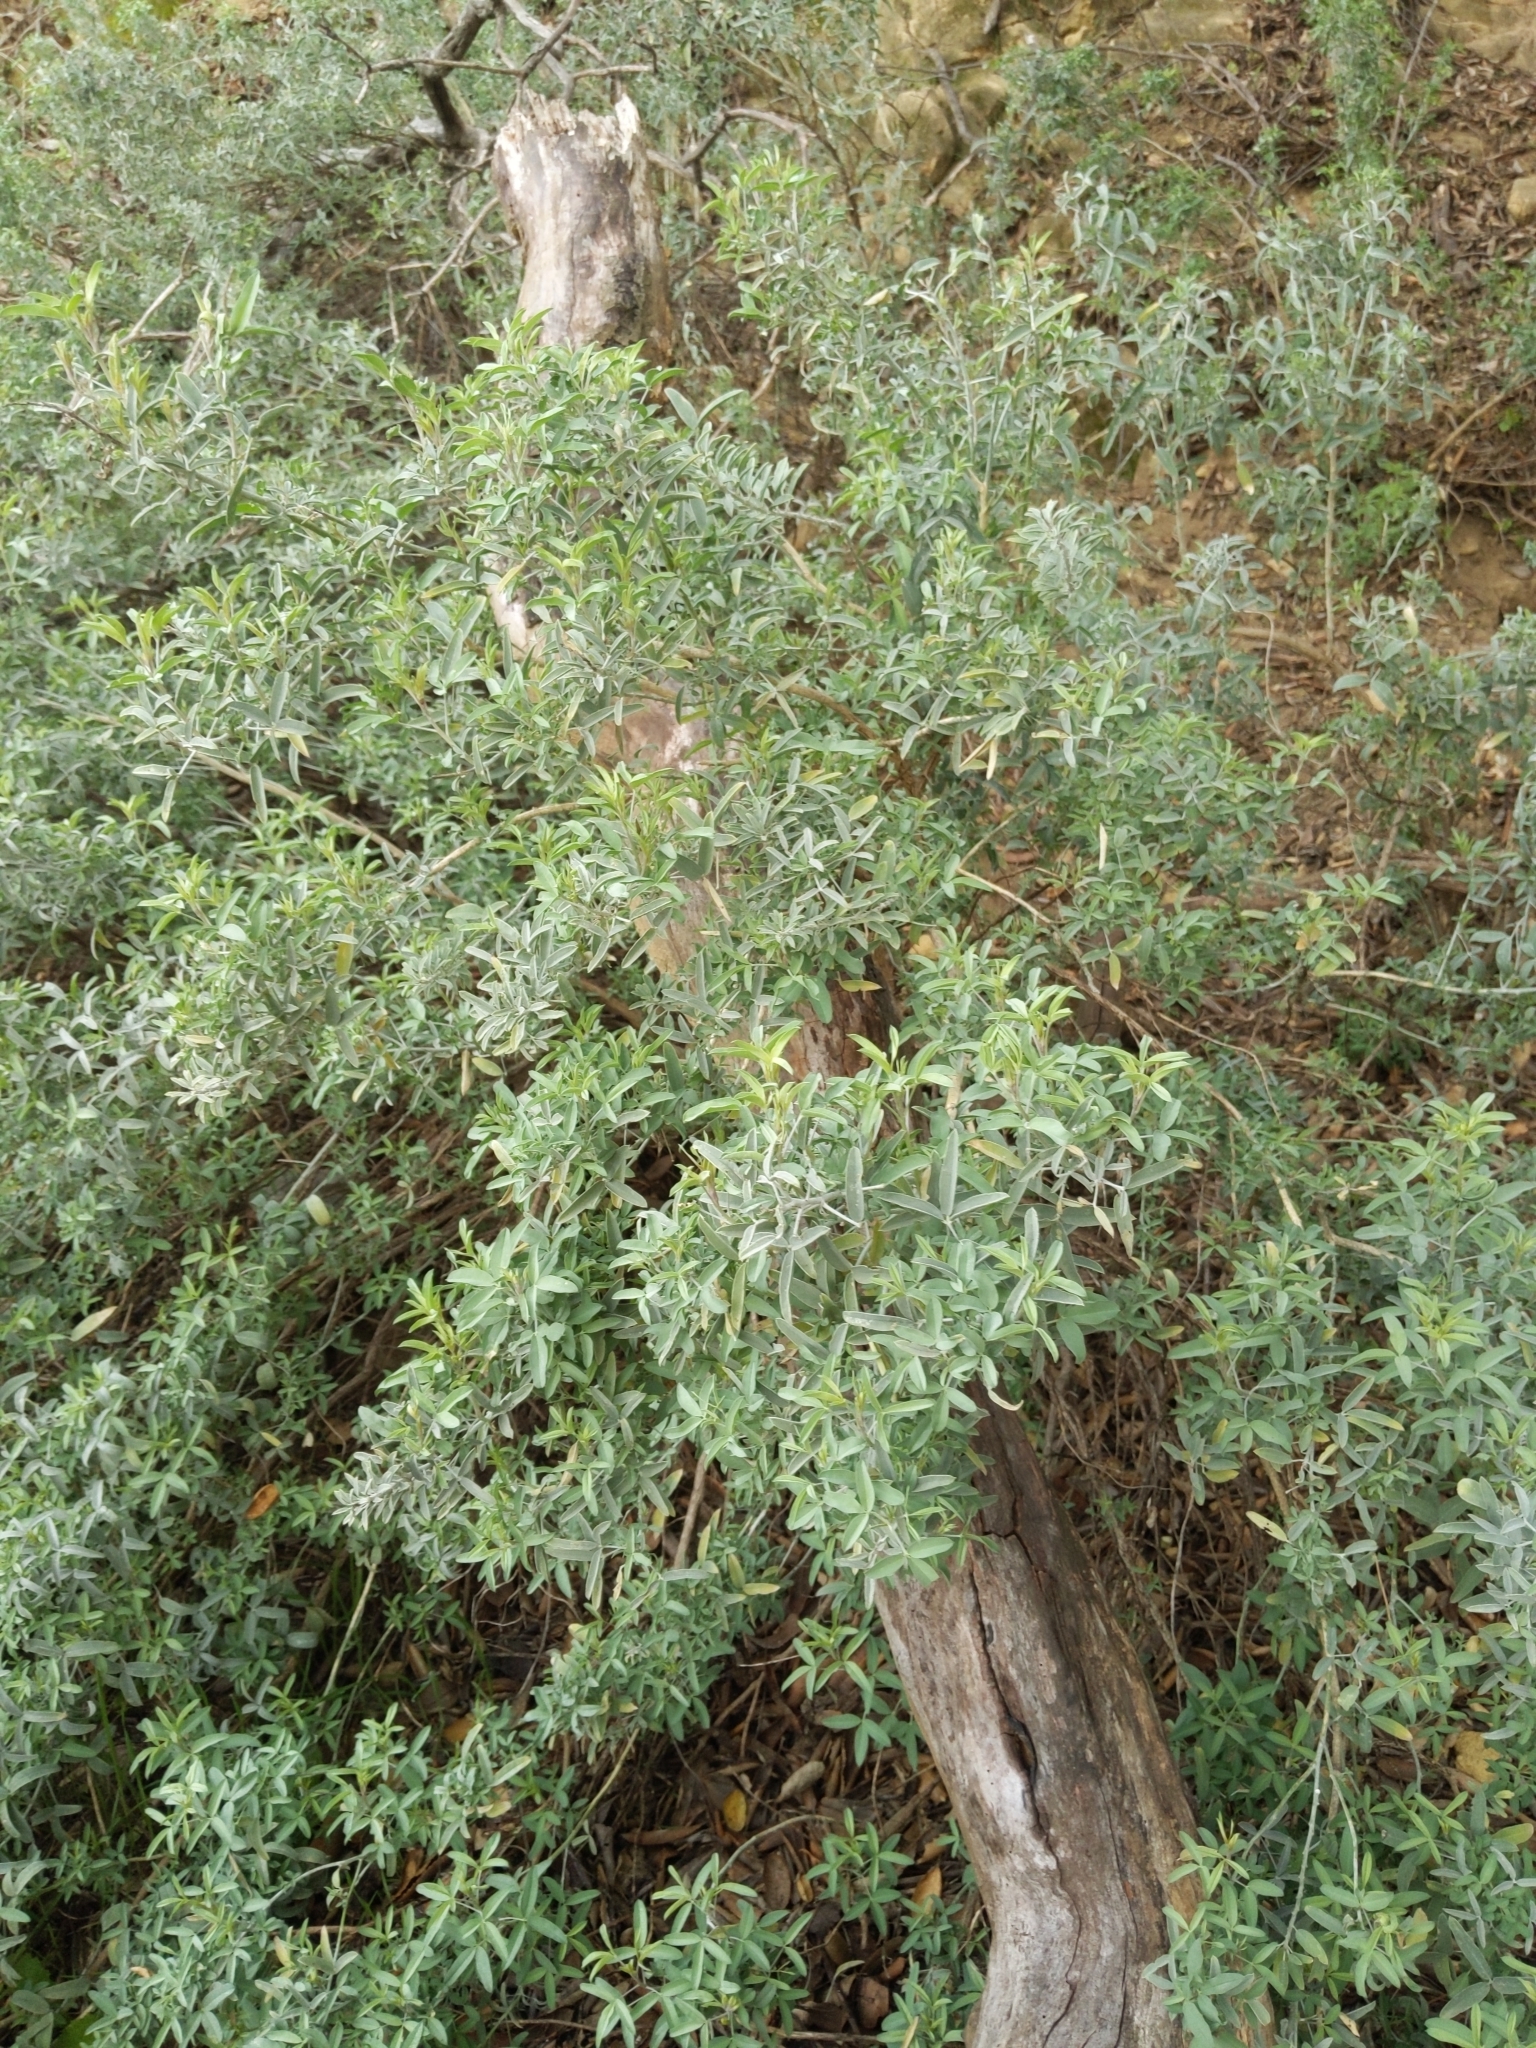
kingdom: Plantae
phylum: Tracheophyta
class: Magnoliopsida
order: Brassicales
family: Cleomaceae
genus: Cleomella
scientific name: Cleomella arborea
